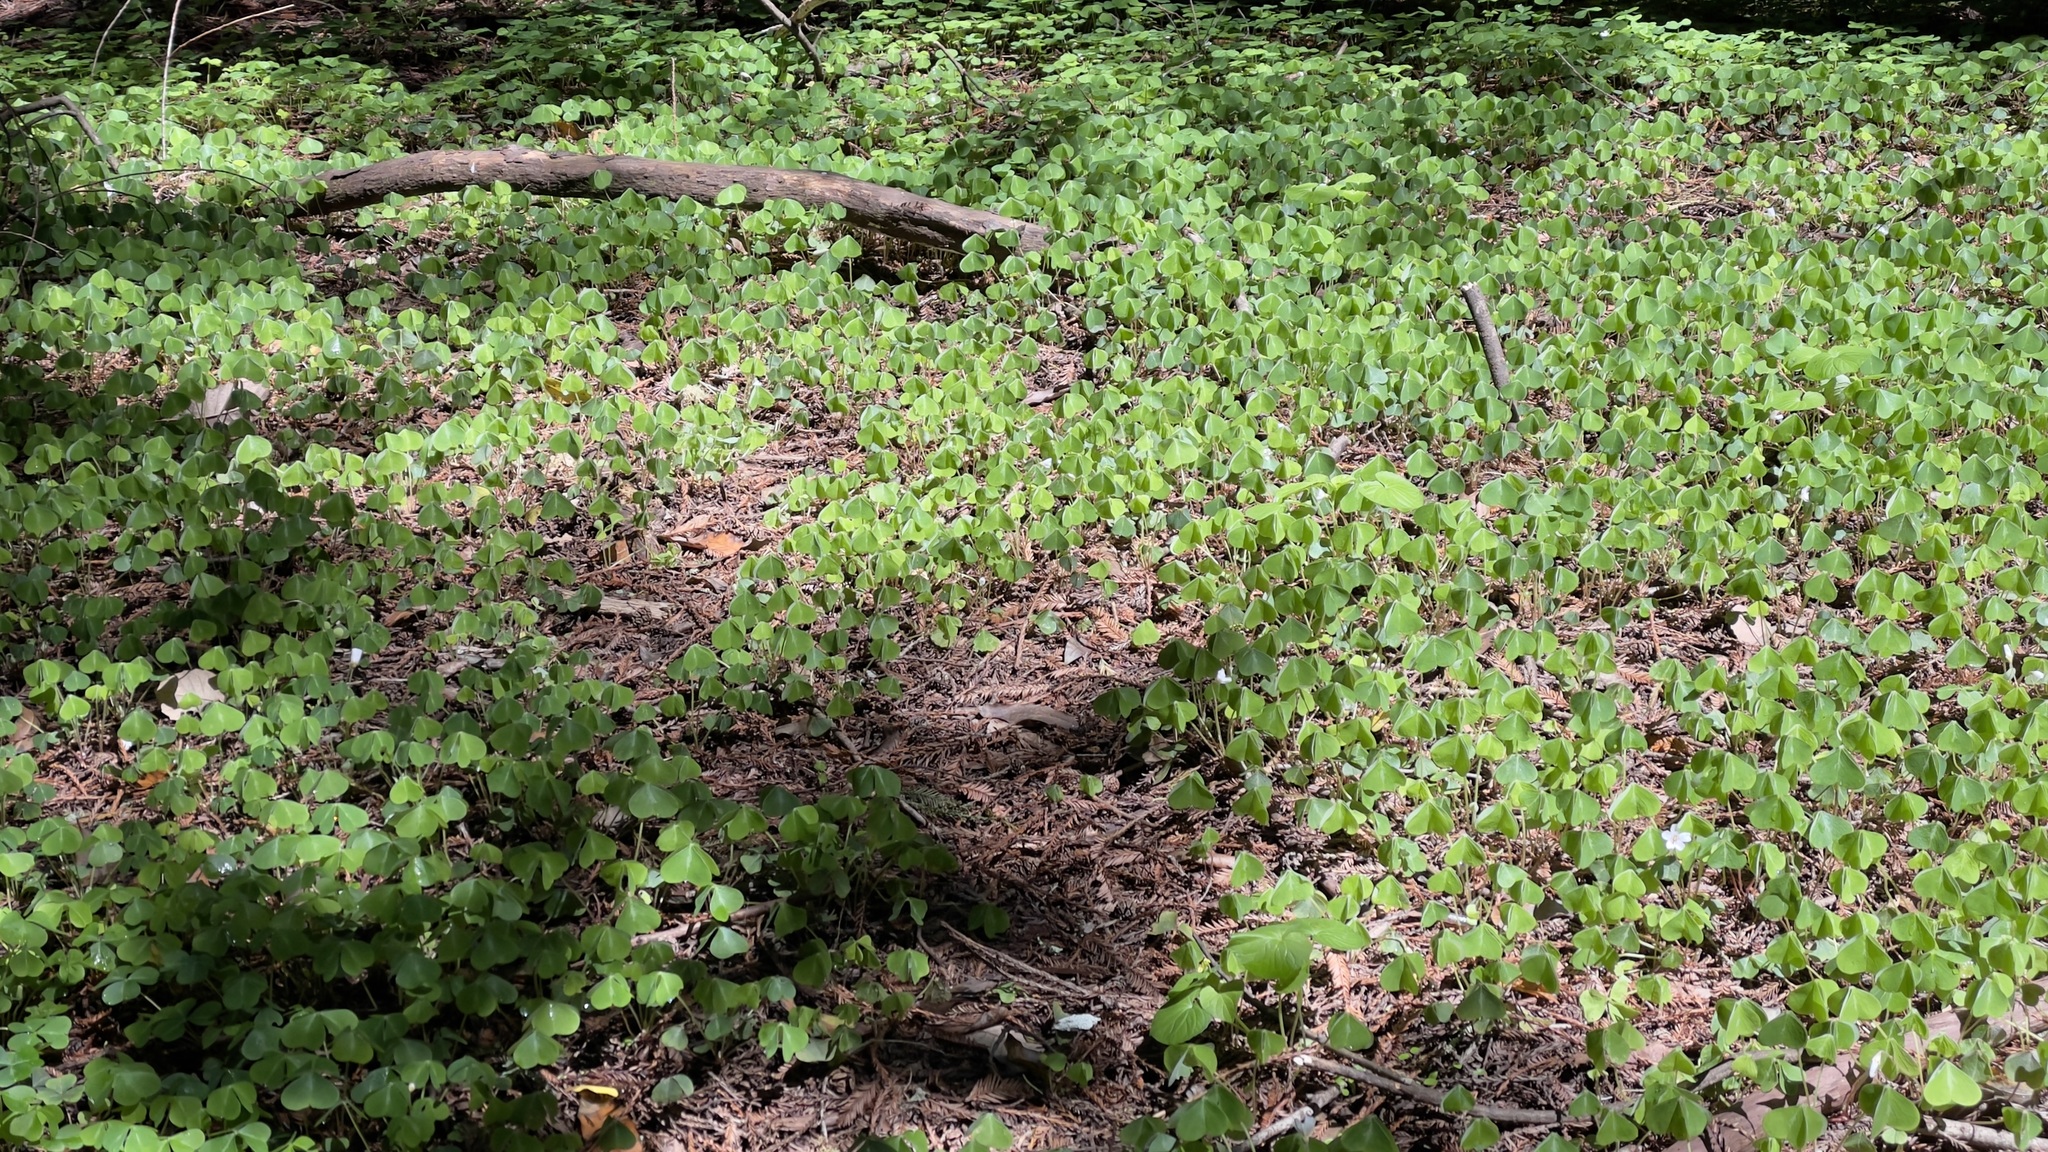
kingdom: Plantae
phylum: Tracheophyta
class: Magnoliopsida
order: Oxalidales
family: Oxalidaceae
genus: Oxalis
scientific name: Oxalis oregana
